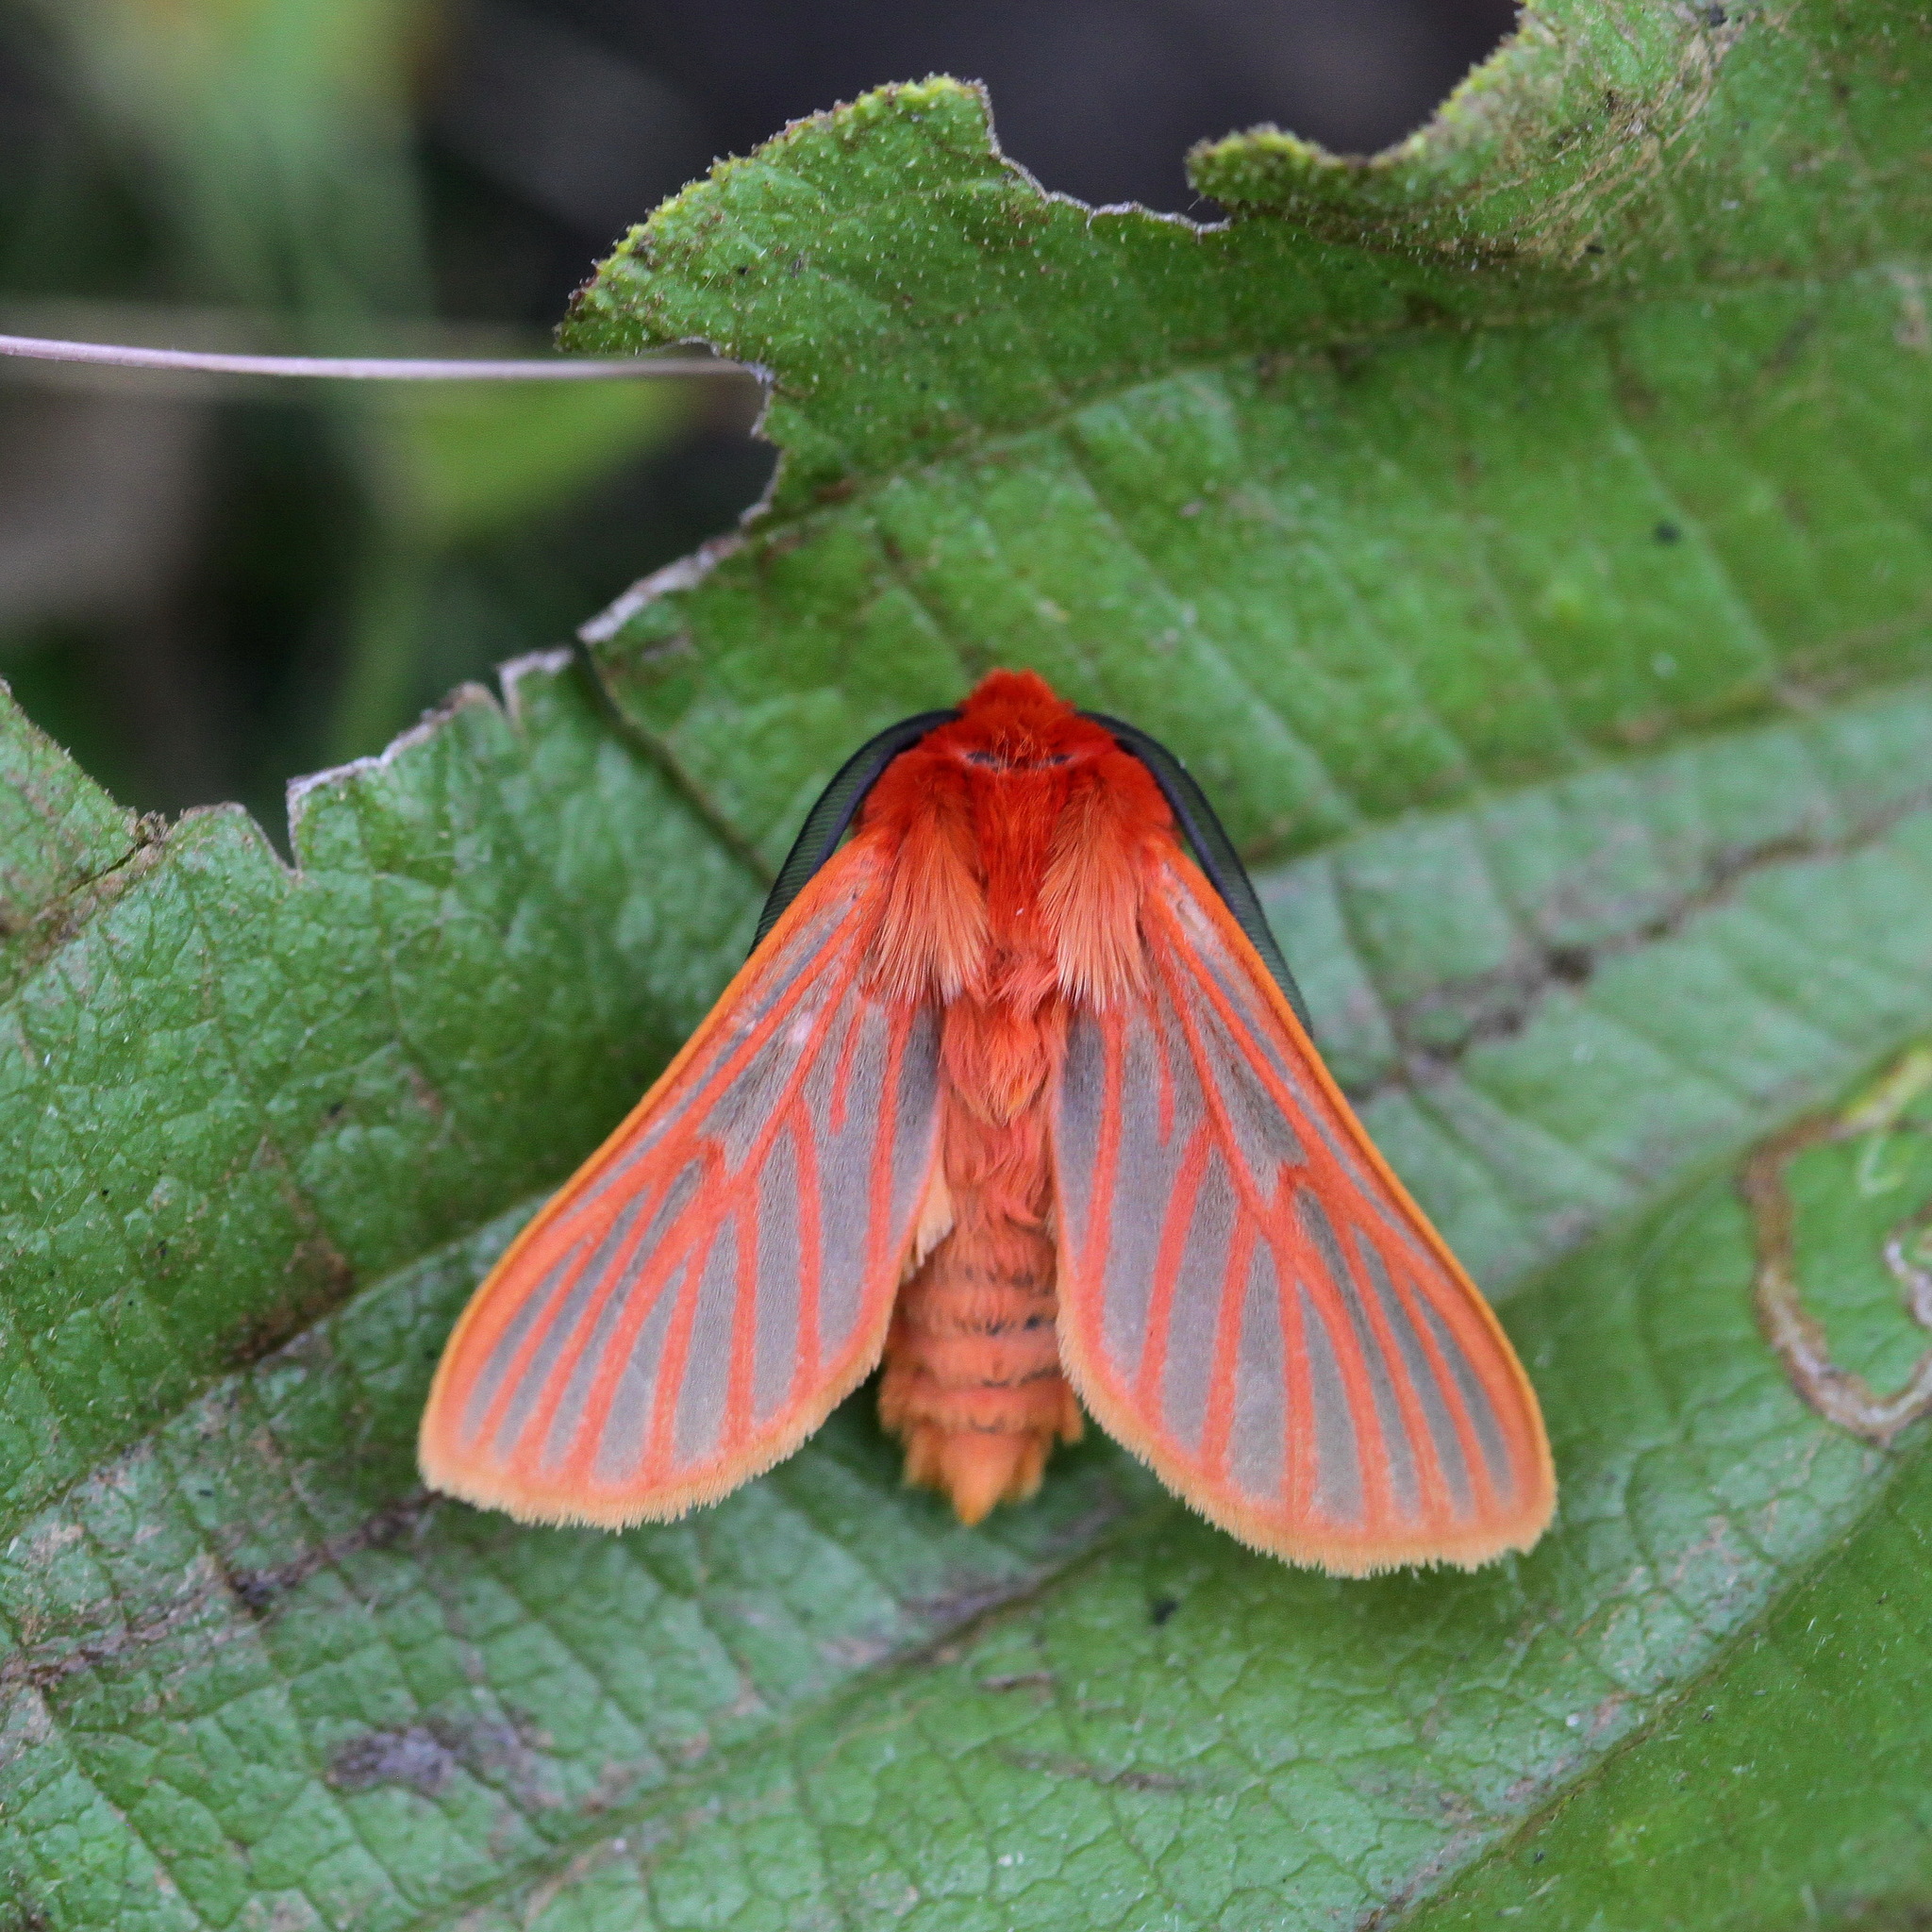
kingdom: Animalia
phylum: Arthropoda
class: Insecta
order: Lepidoptera
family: Erebidae
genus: Automolis
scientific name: Automolis lateritia
